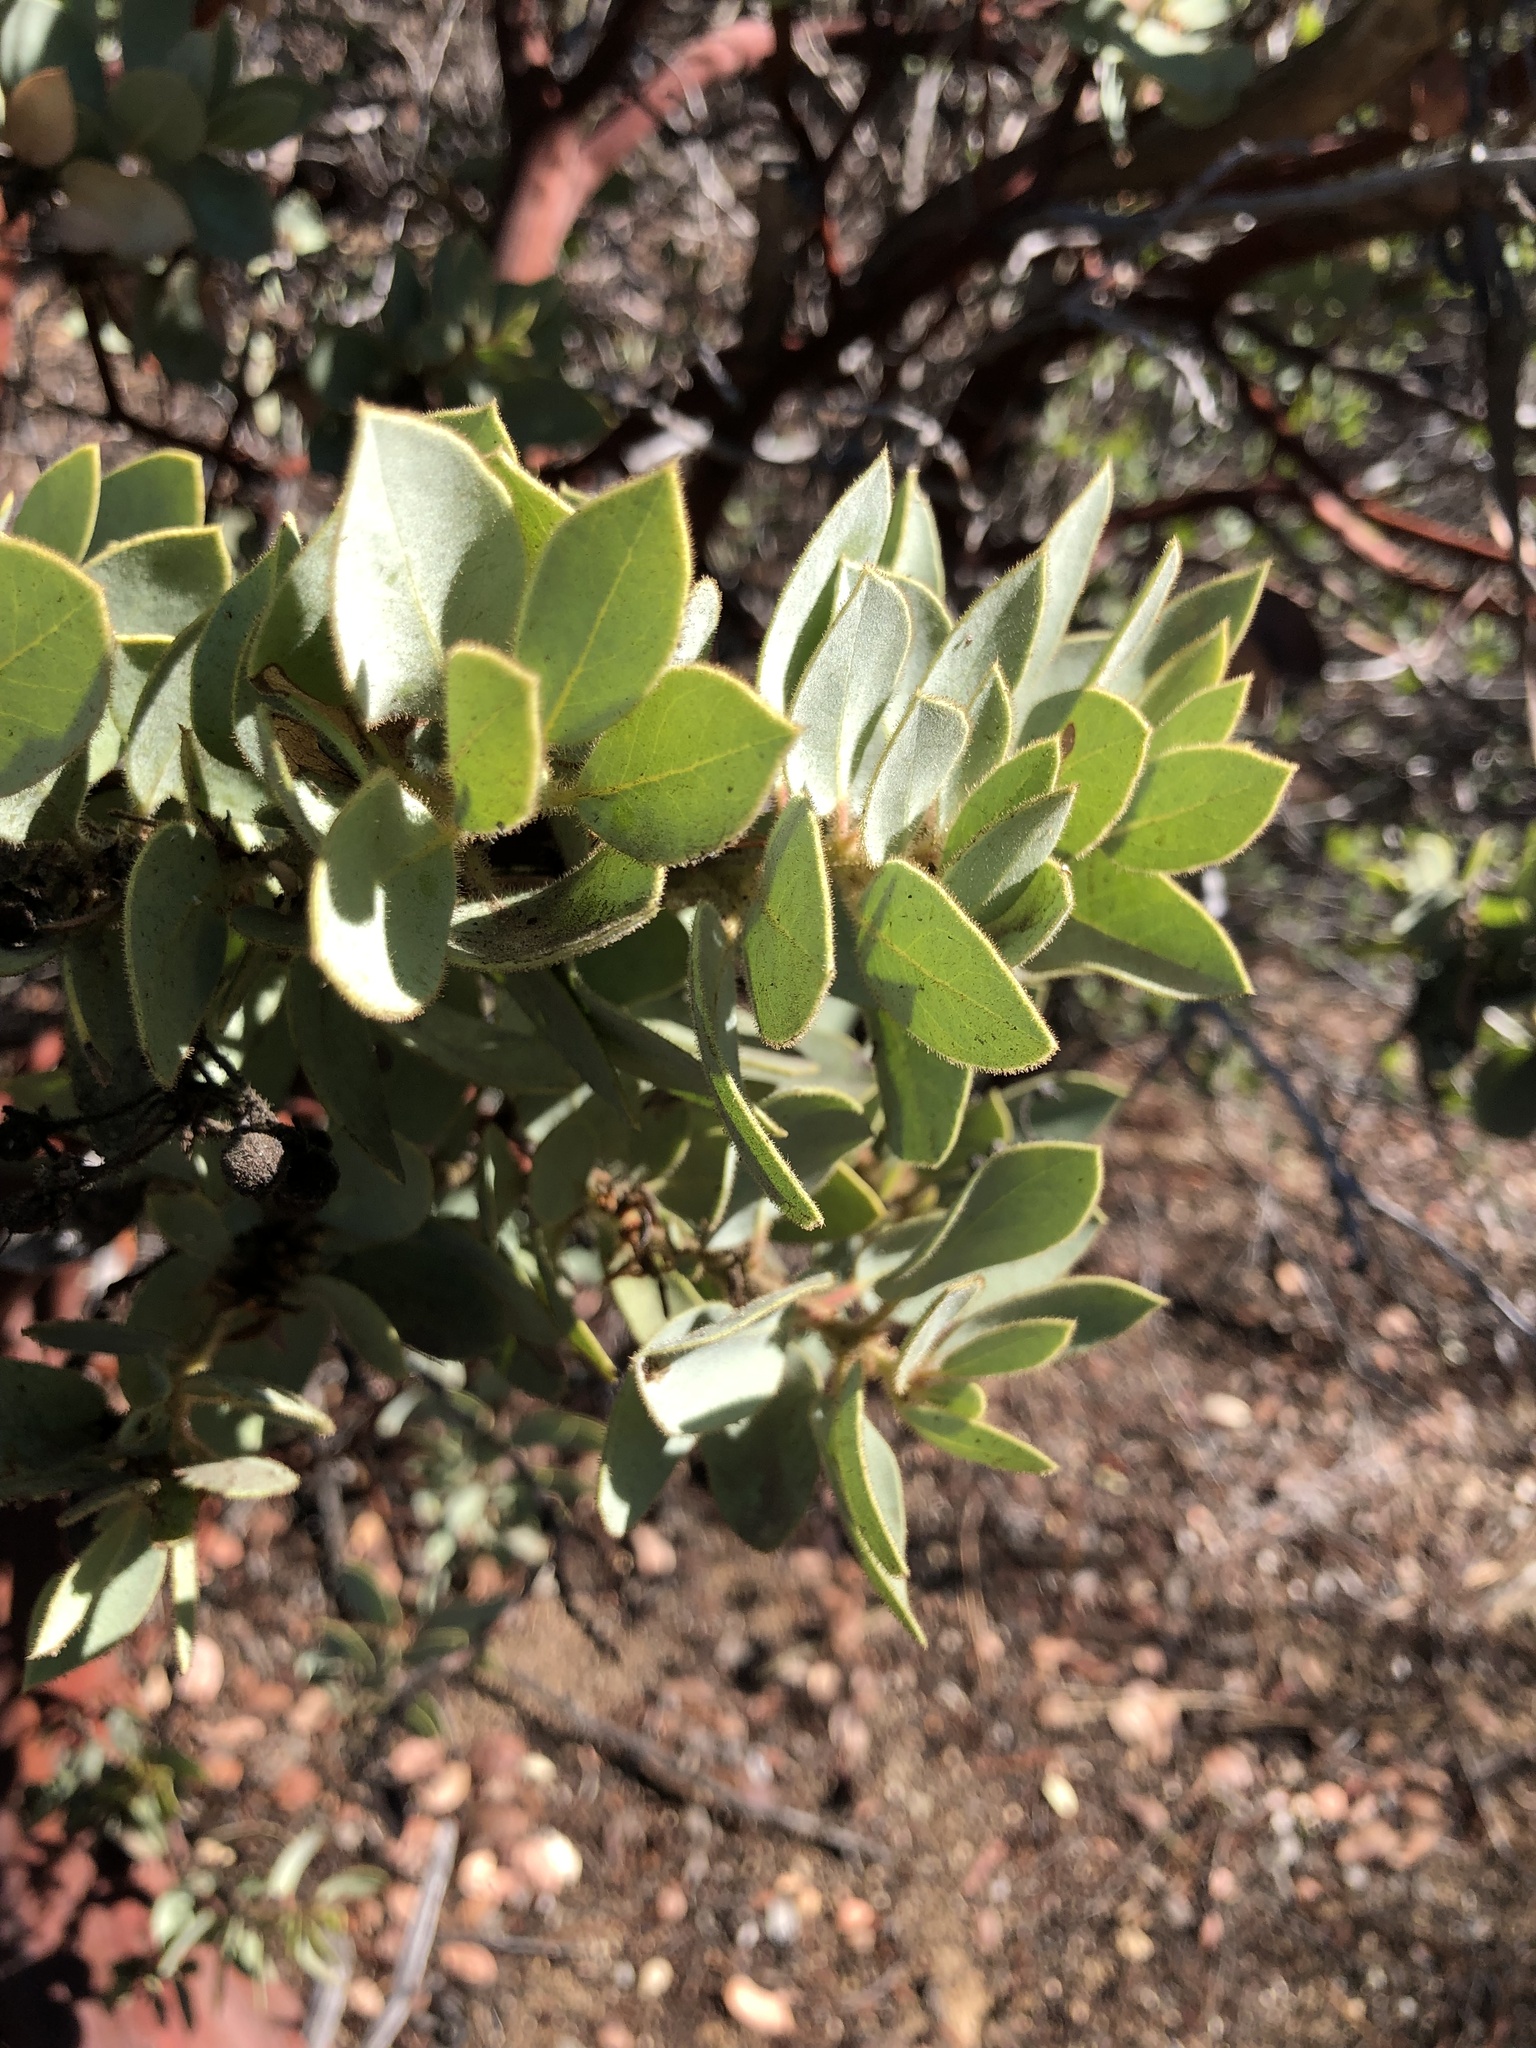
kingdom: Plantae
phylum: Tracheophyta
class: Magnoliopsida
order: Ericales
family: Ericaceae
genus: Arctostaphylos
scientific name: Arctostaphylos pringlei
